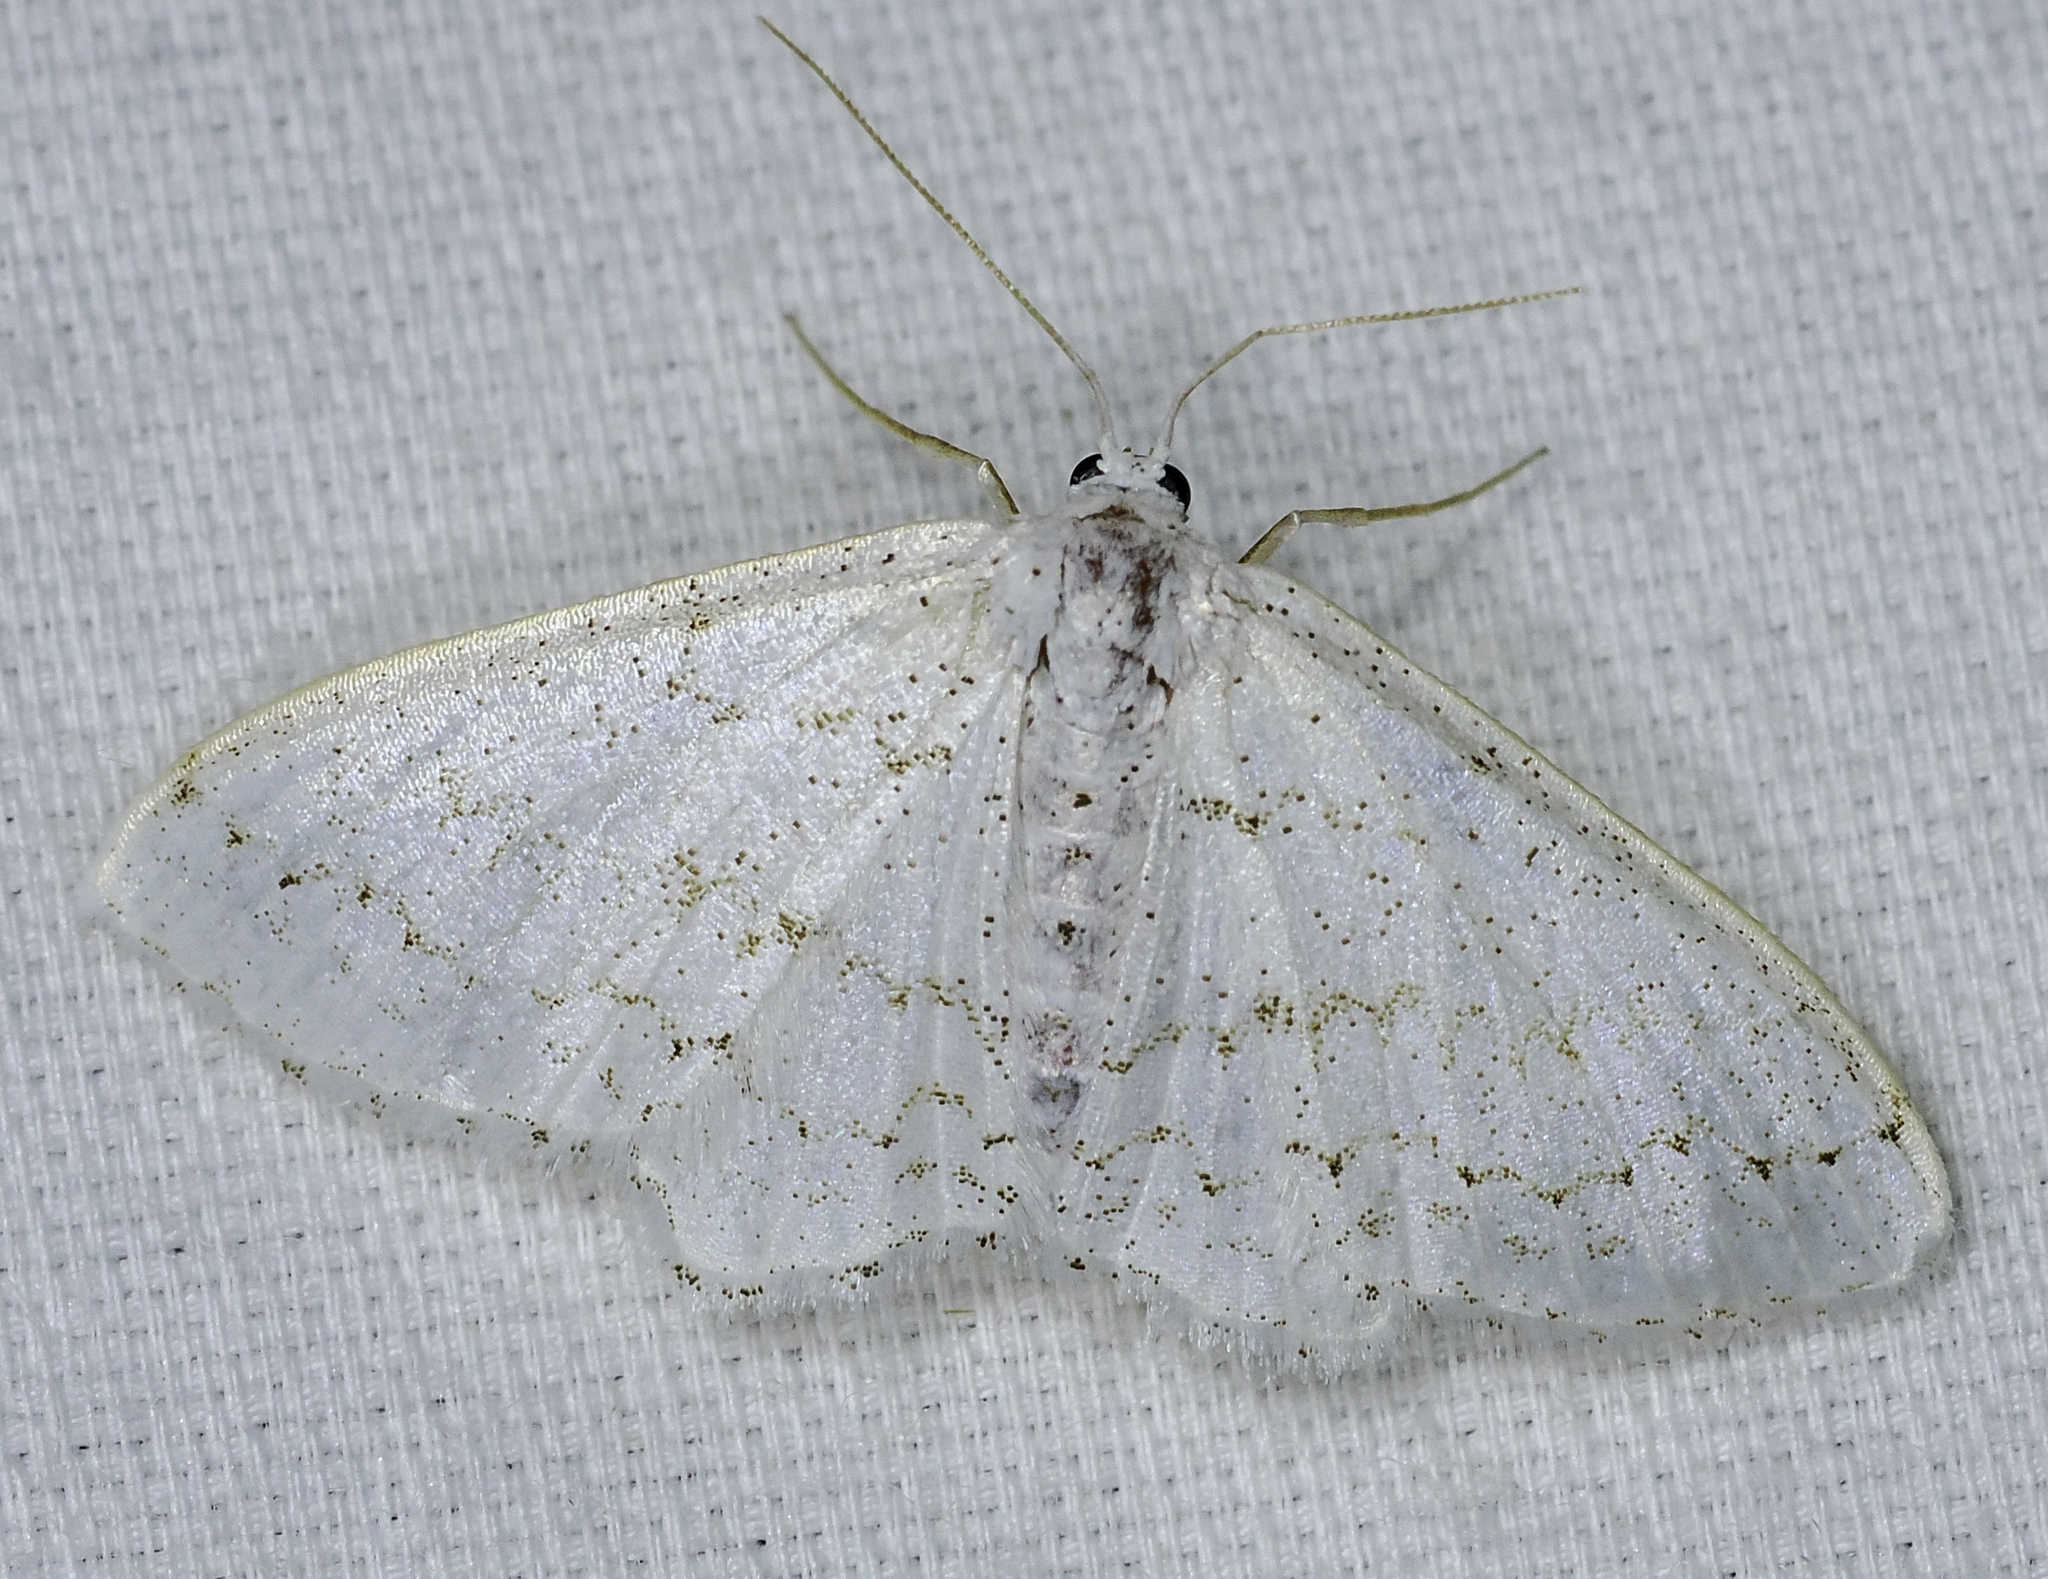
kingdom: Animalia
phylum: Arthropoda
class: Insecta
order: Lepidoptera
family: Geometridae
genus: Idaea
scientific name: Idaea tacturata
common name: Dot-lined wave
